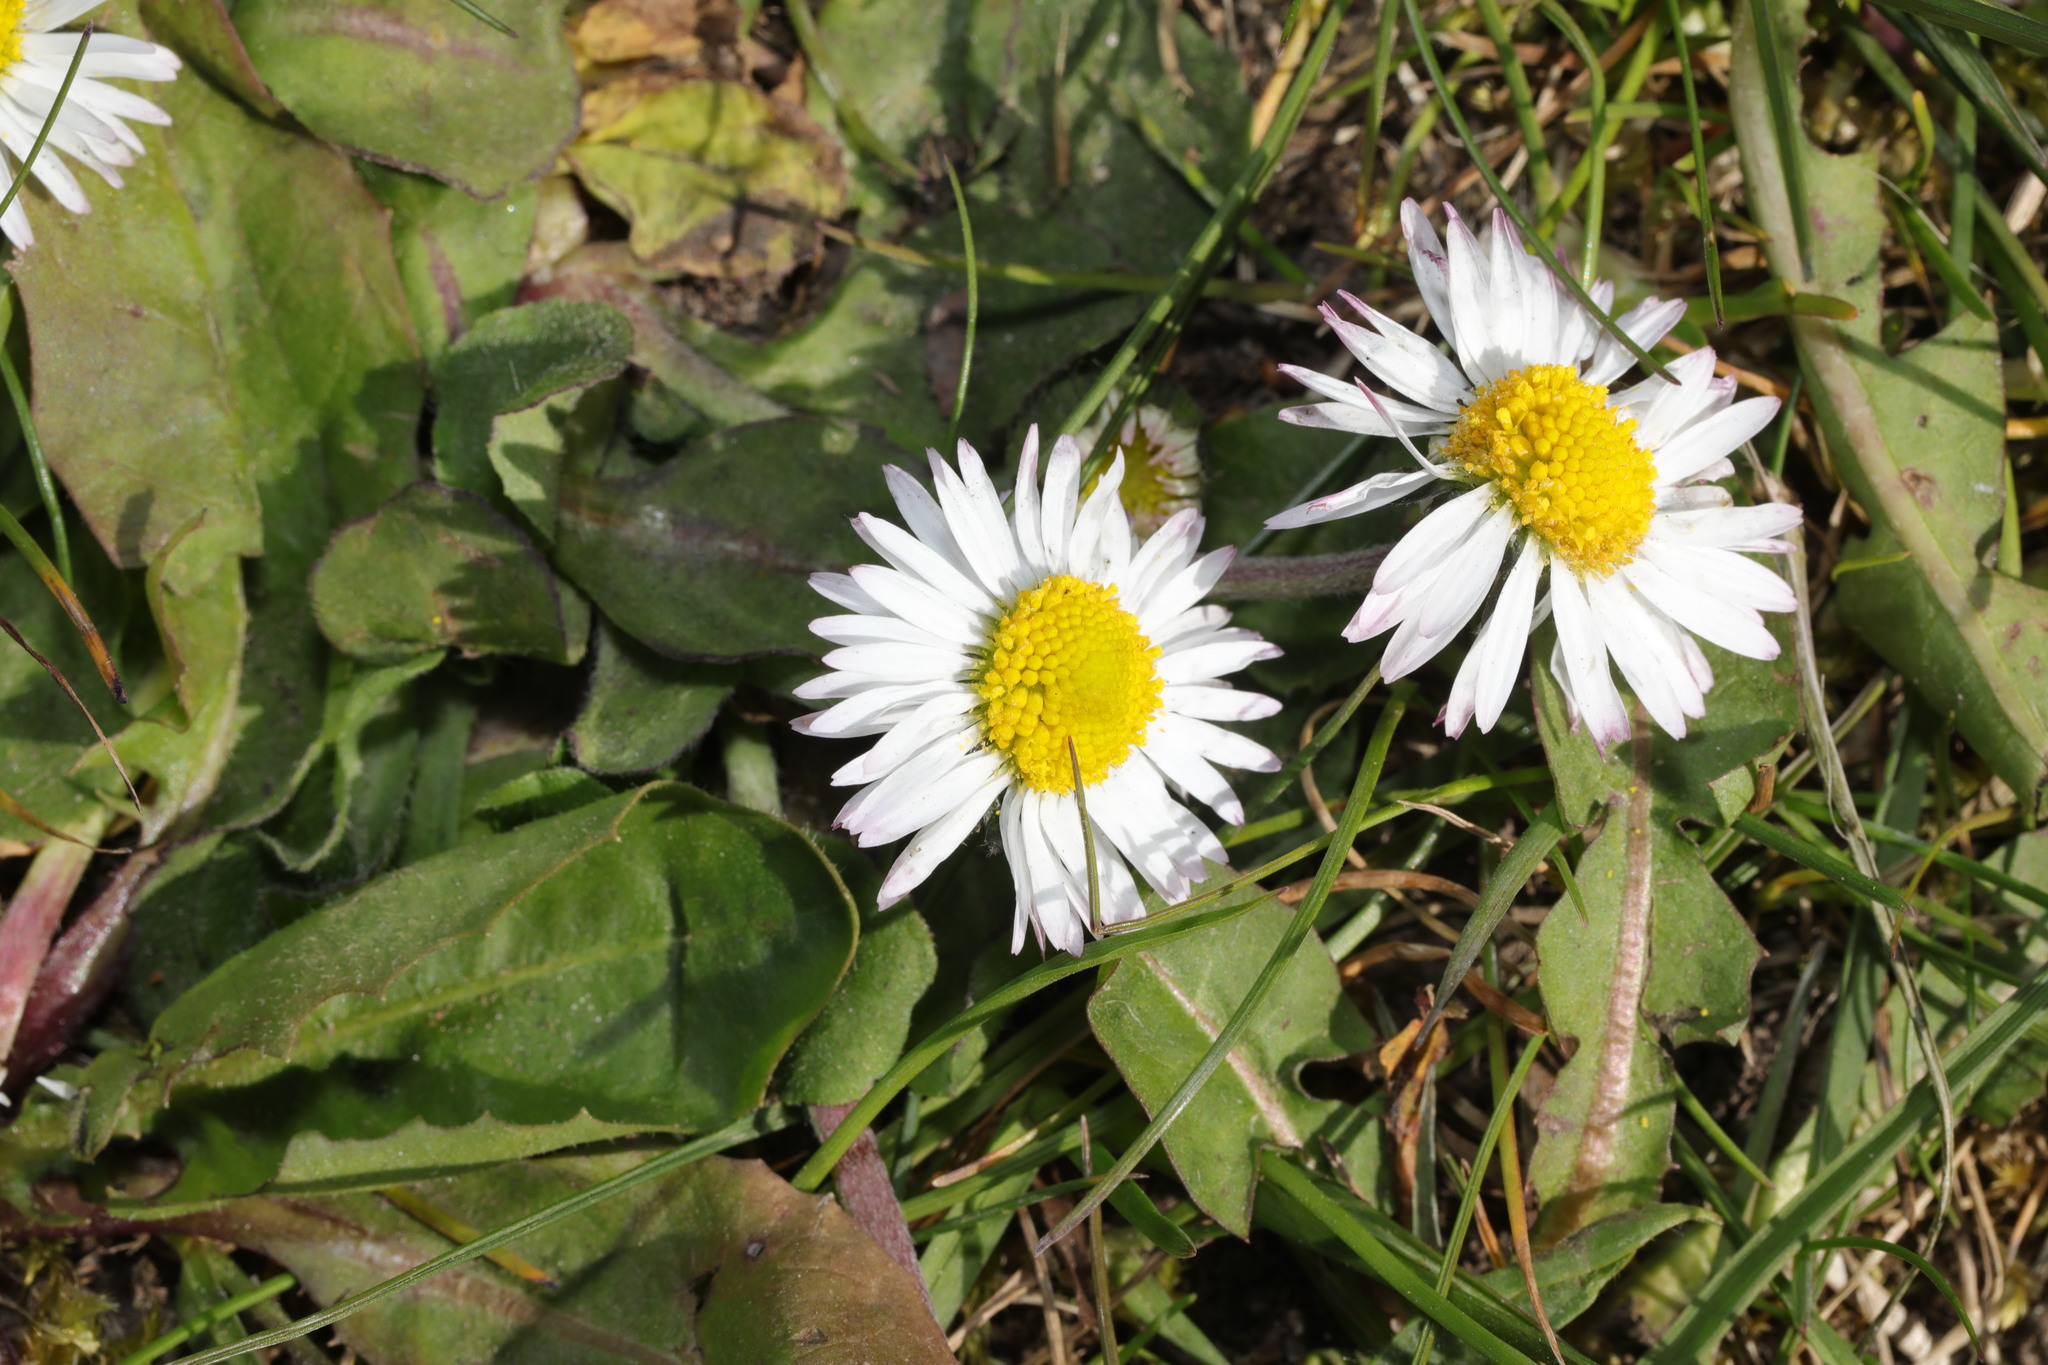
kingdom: Plantae
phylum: Tracheophyta
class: Magnoliopsida
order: Asterales
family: Asteraceae
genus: Bellis
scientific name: Bellis perennis
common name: Lawndaisy
